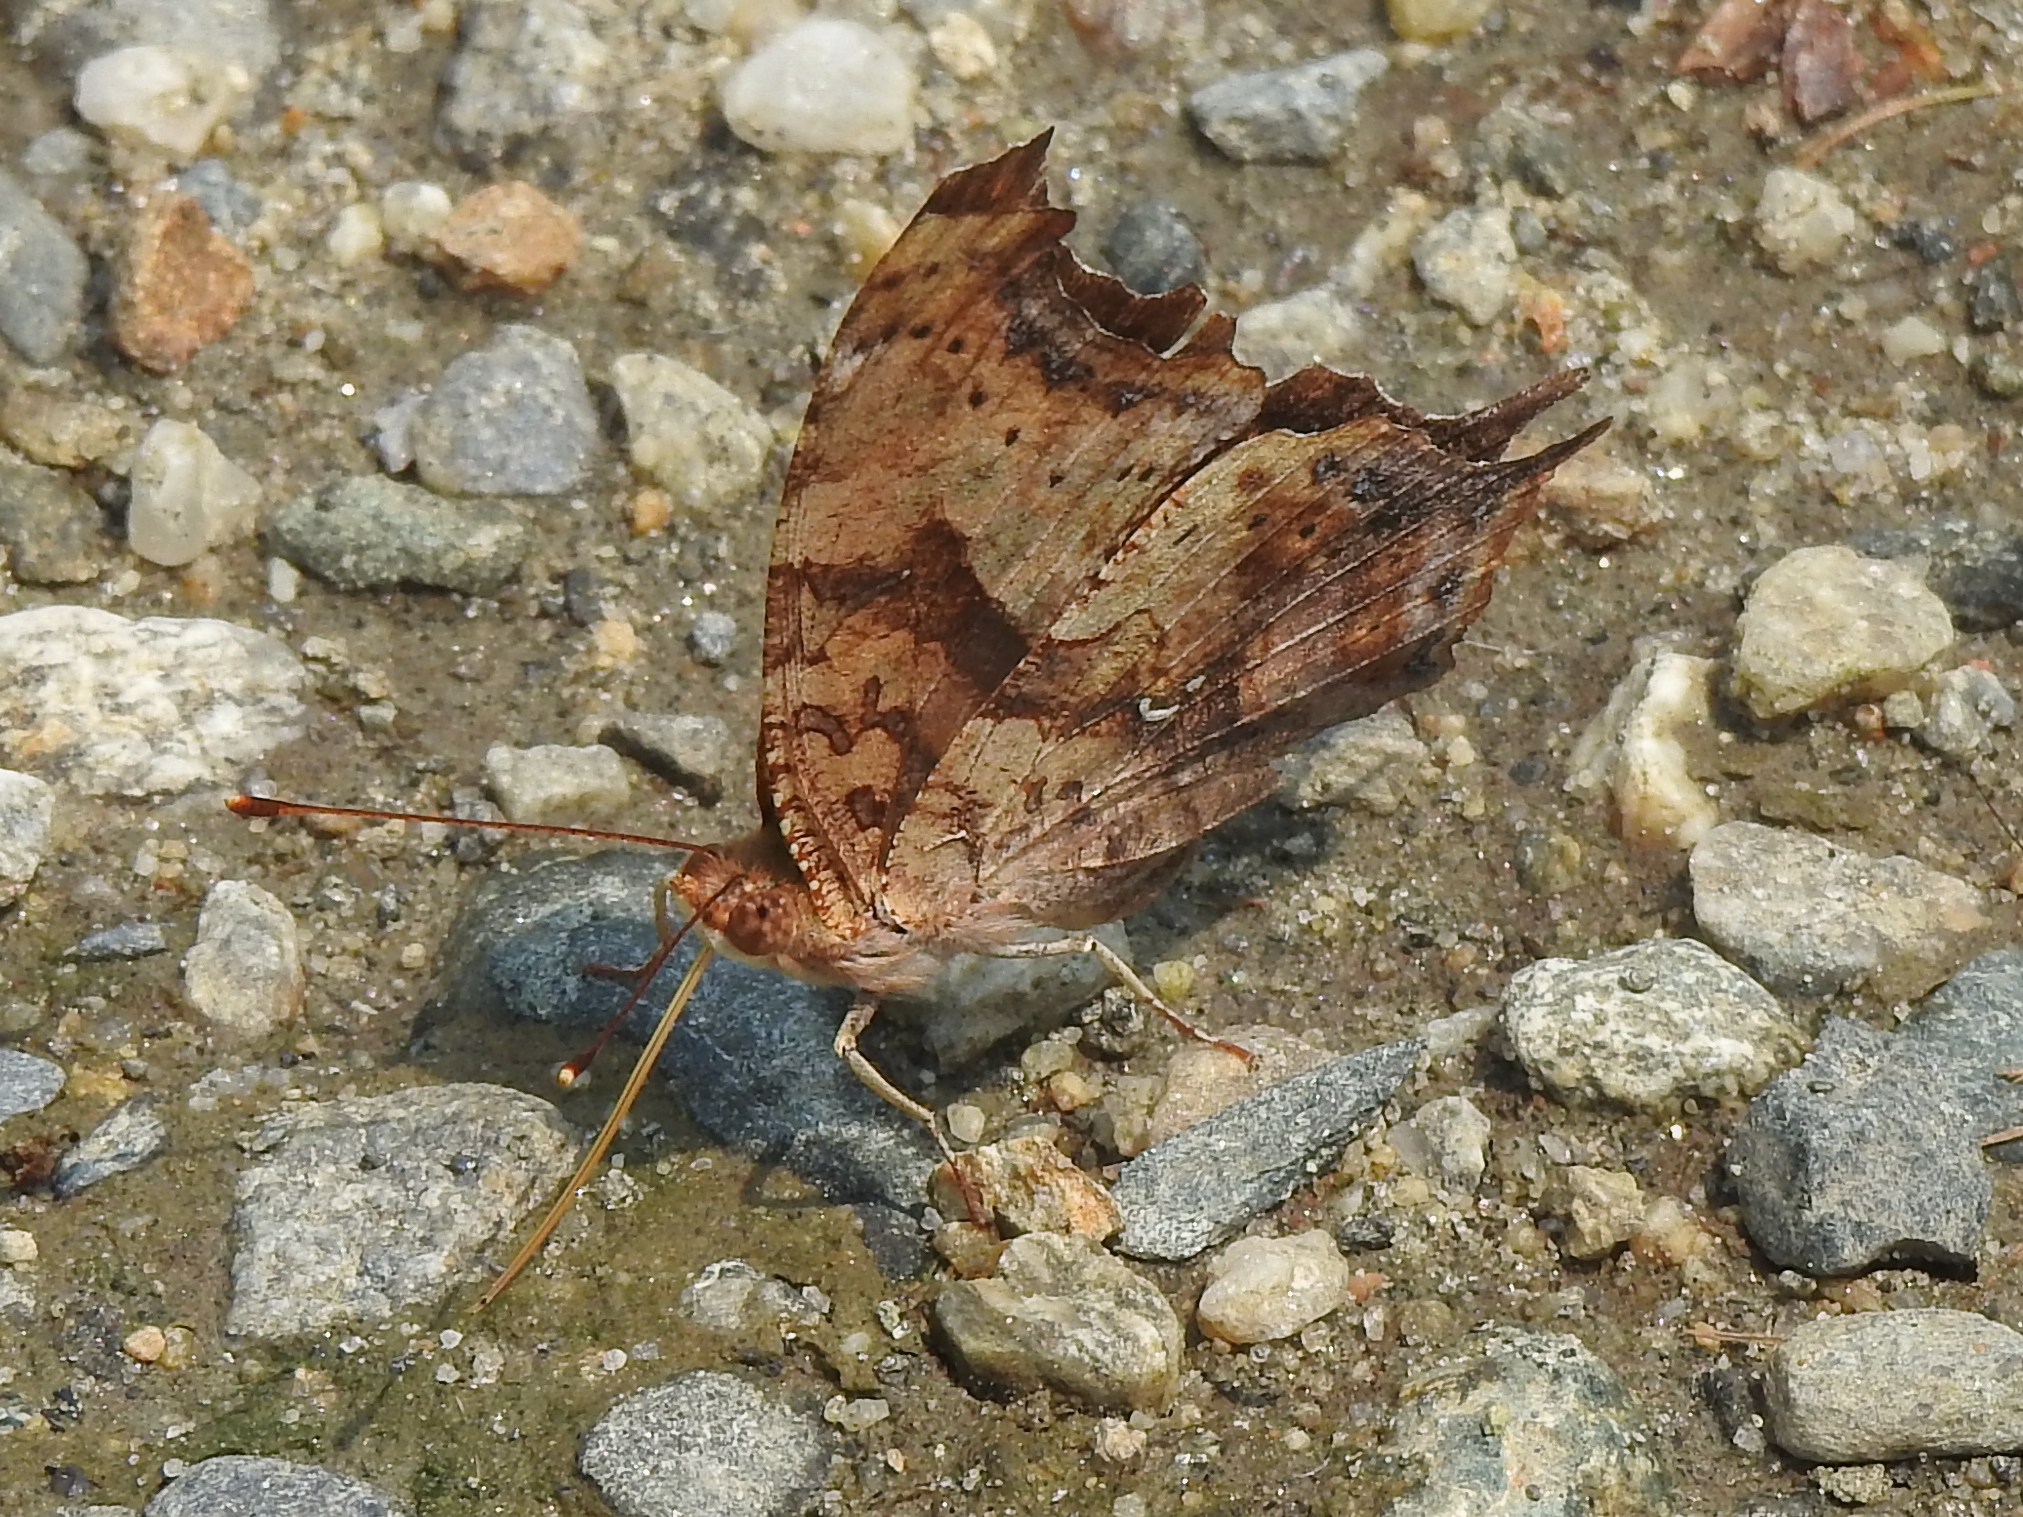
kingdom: Animalia
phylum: Arthropoda
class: Insecta
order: Lepidoptera
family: Nymphalidae
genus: Polygonia
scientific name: Polygonia interrogationis
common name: Question mark
